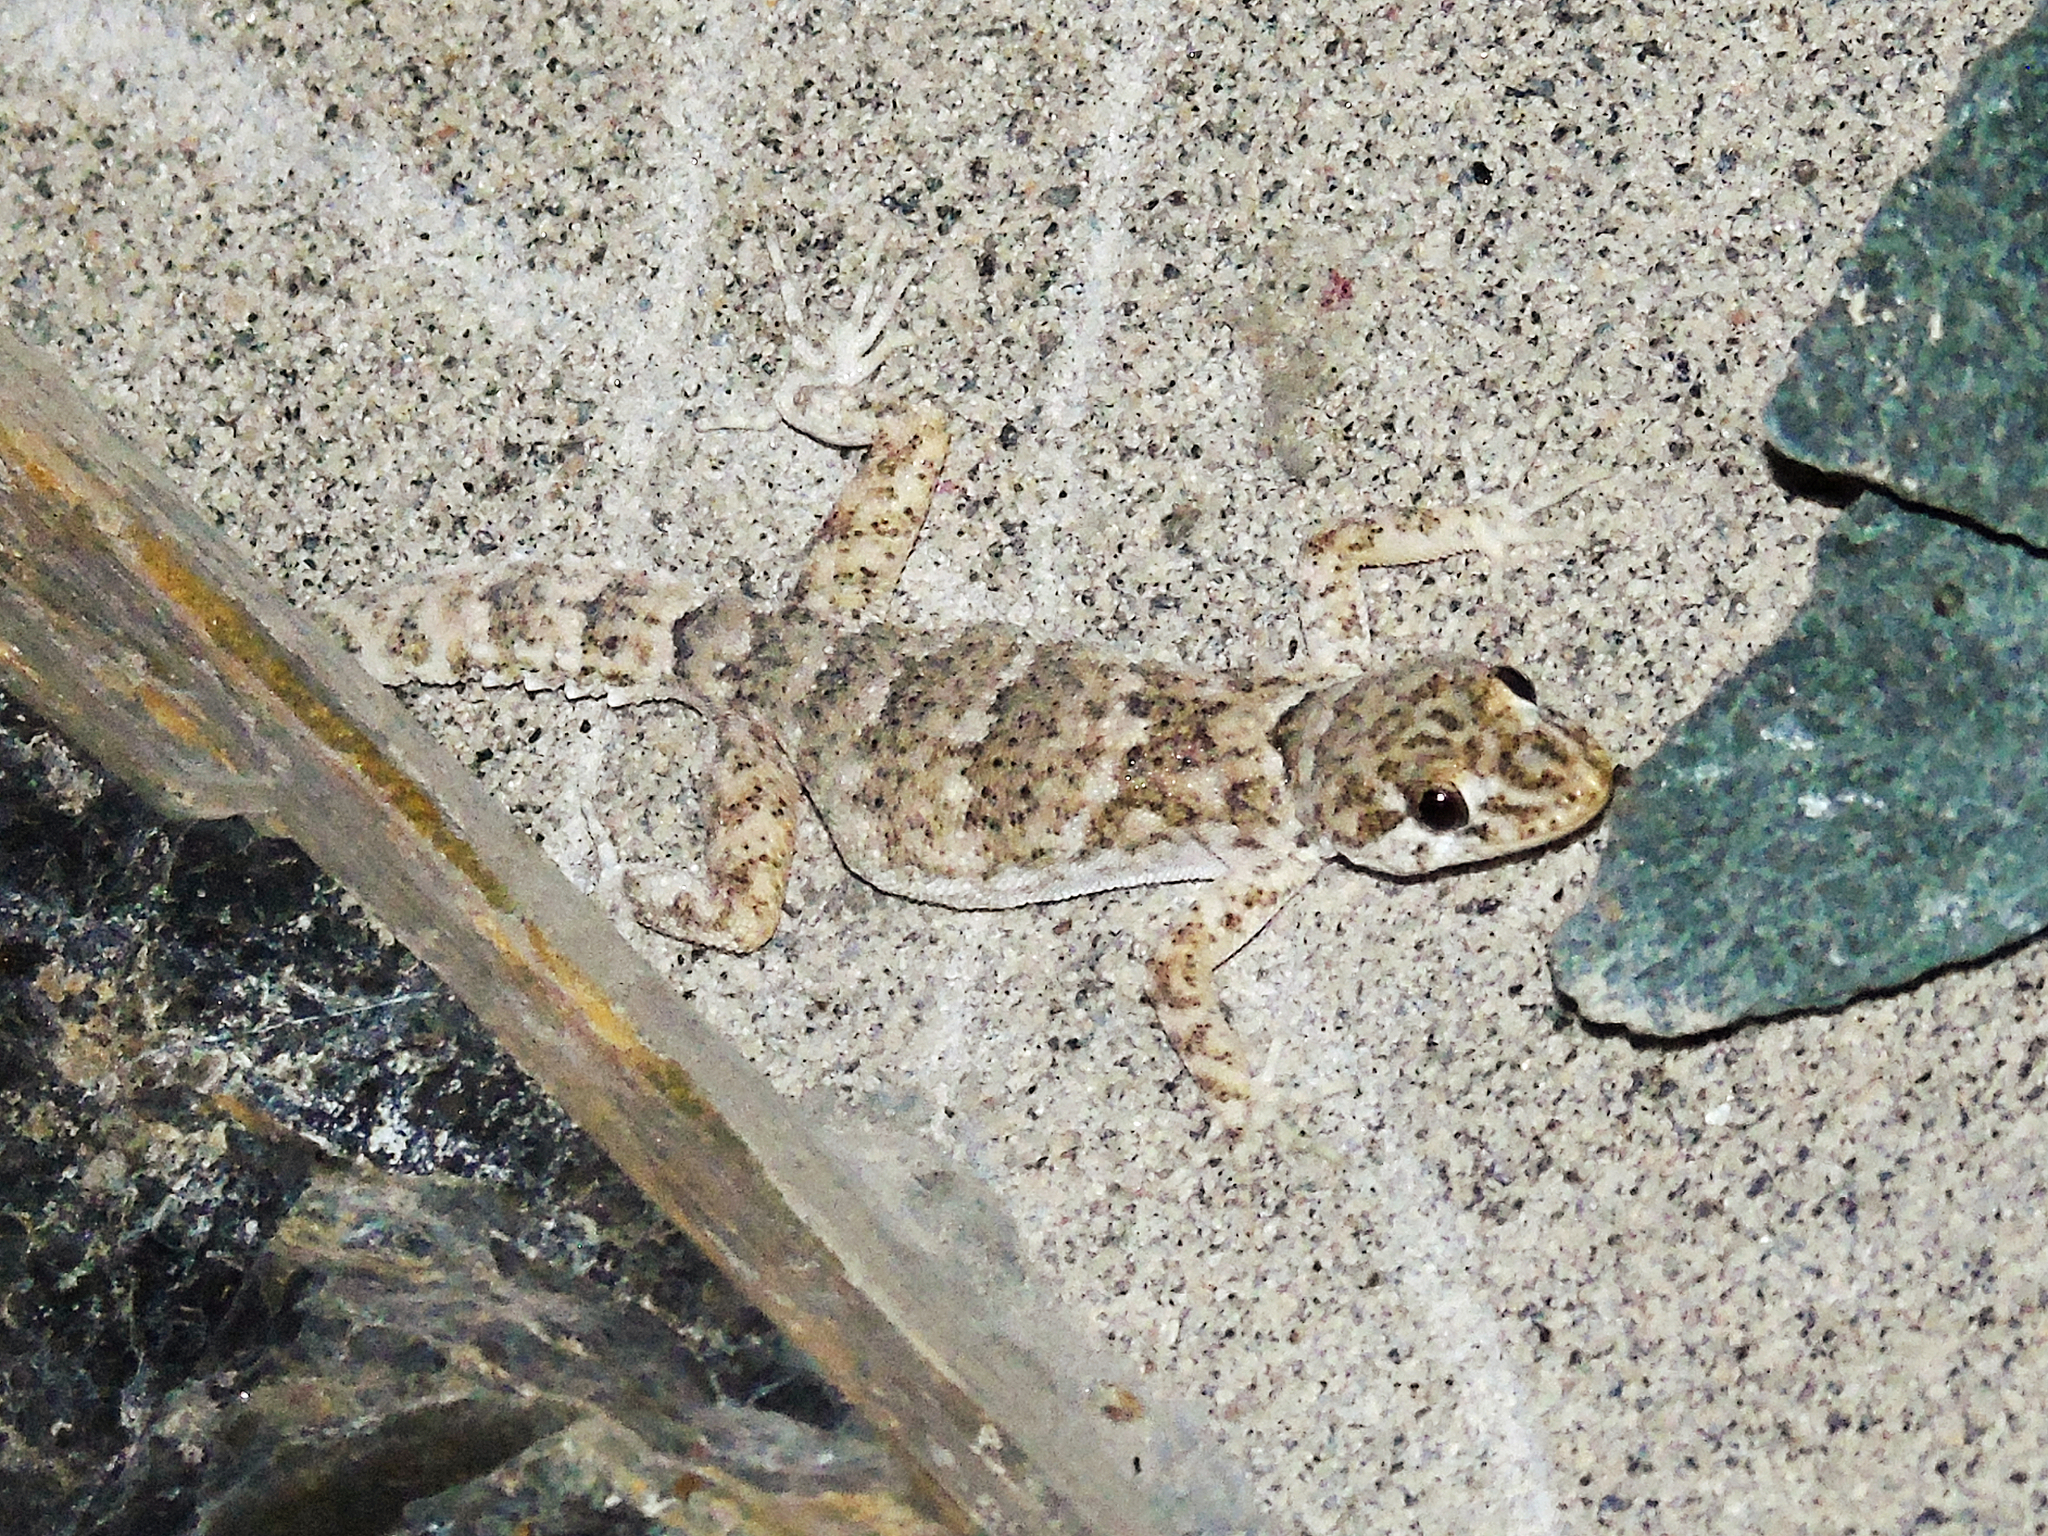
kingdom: Animalia
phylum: Chordata
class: Squamata
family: Gekkonidae
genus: Altiphylax
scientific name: Altiphylax stoliczkai
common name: Frontier bow-fingered gecko
